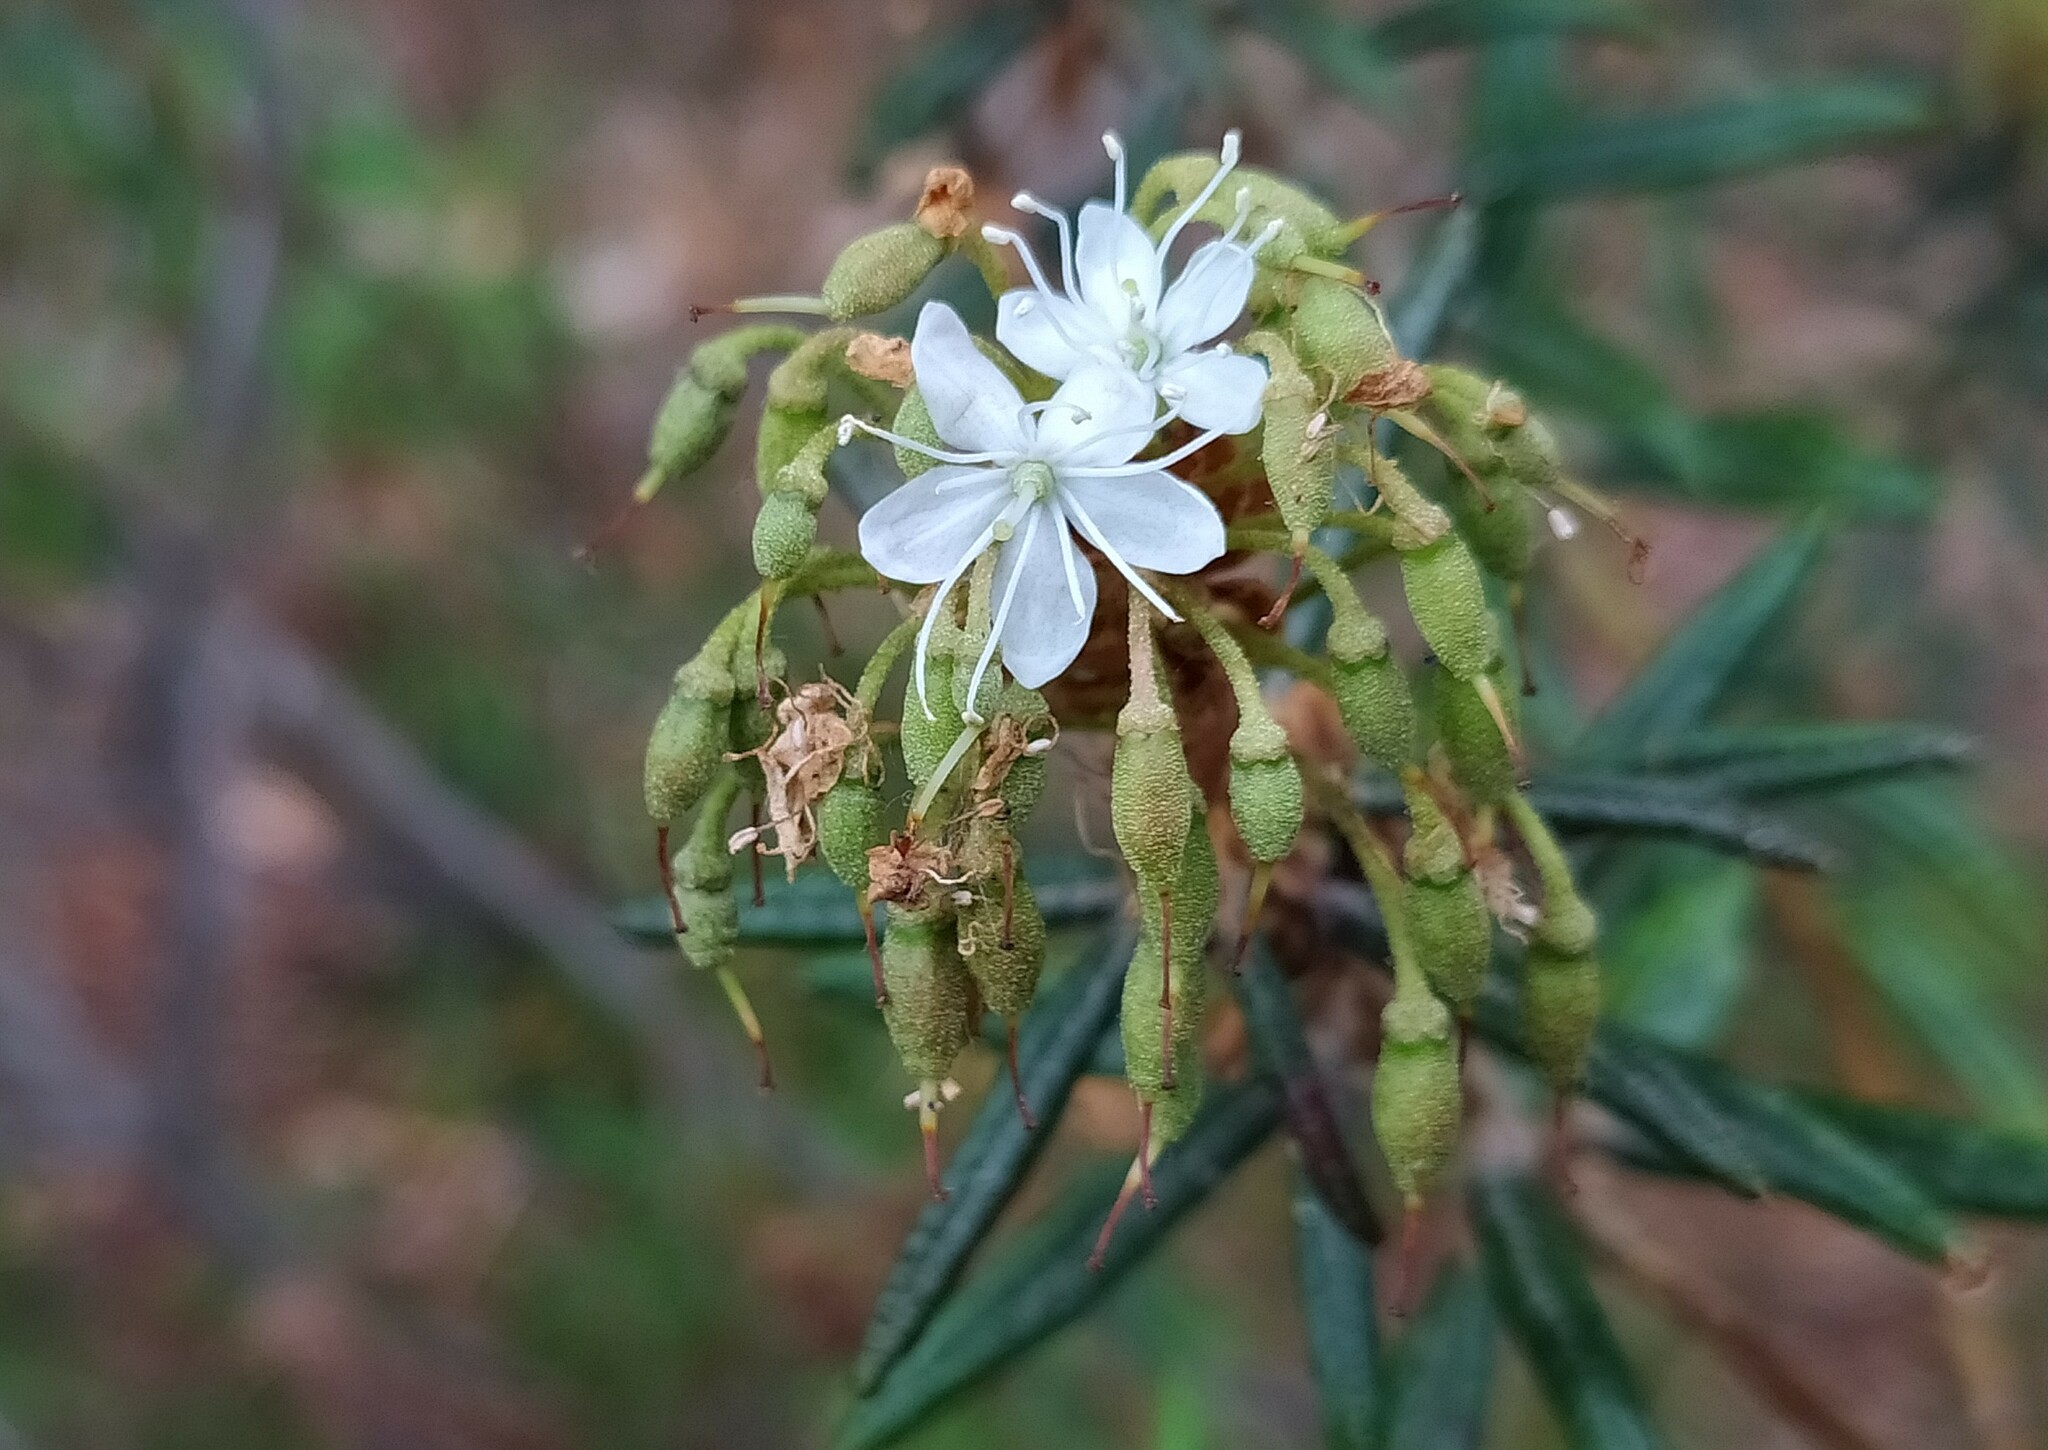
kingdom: Plantae
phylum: Tracheophyta
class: Magnoliopsida
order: Ericales
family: Ericaceae
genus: Rhododendron
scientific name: Rhododendron tomentosum
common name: Marsh labrador tea
